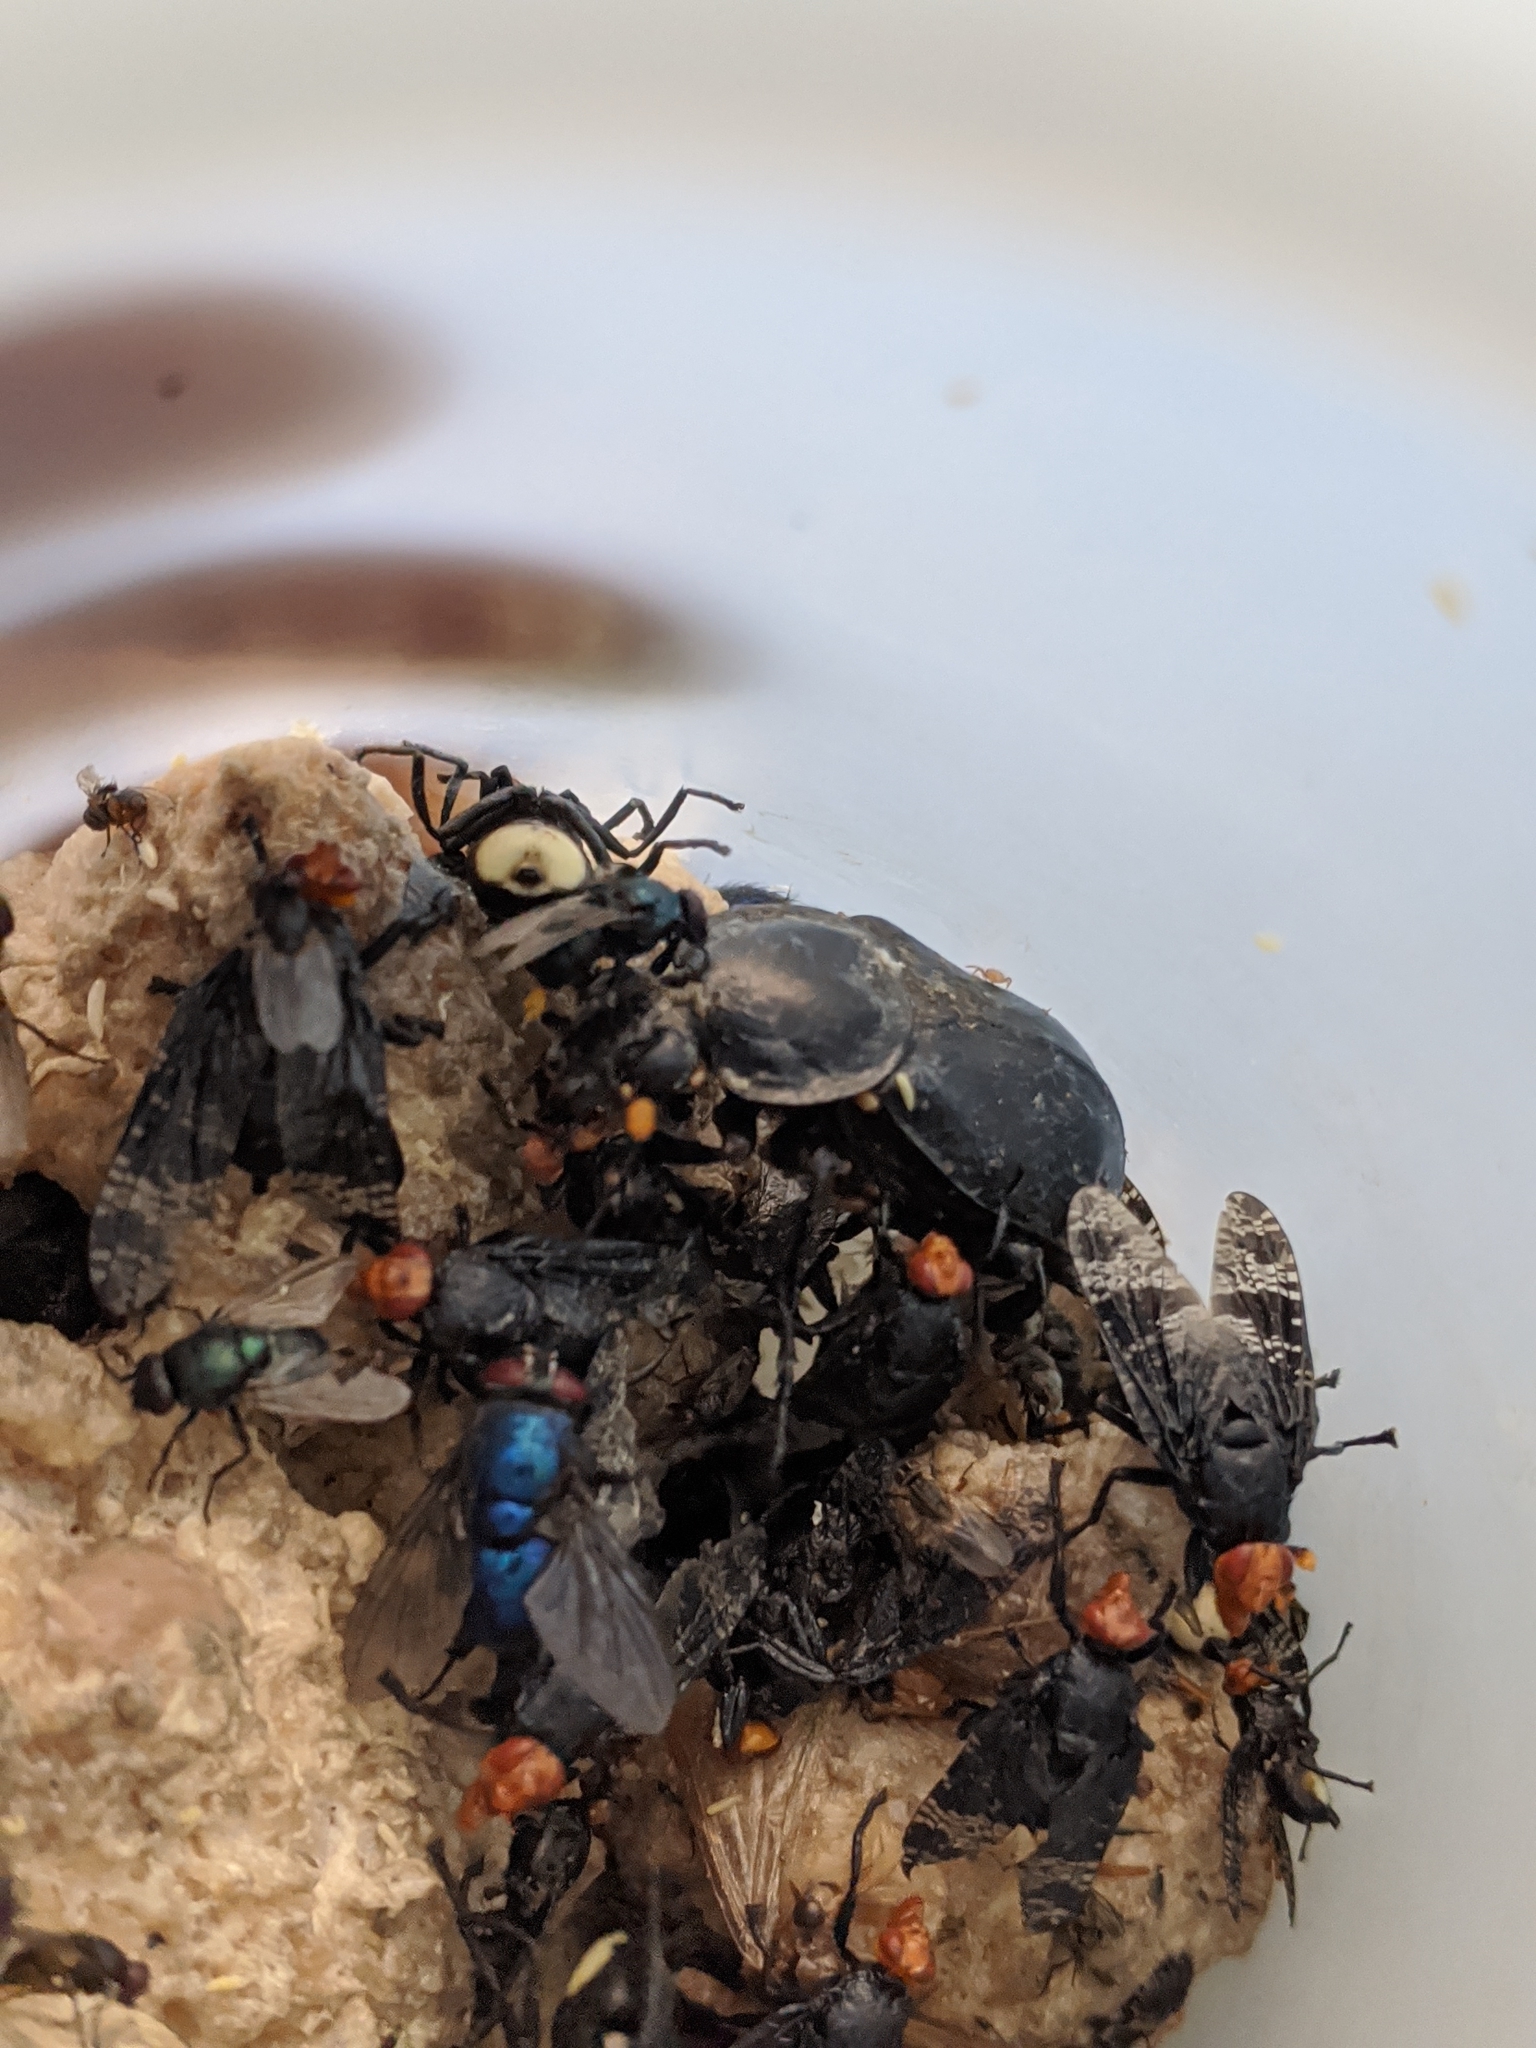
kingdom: Animalia
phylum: Arthropoda
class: Insecta
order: Coleoptera
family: Staphylinidae
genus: Nicrophorus
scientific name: Nicrophorus concolor
